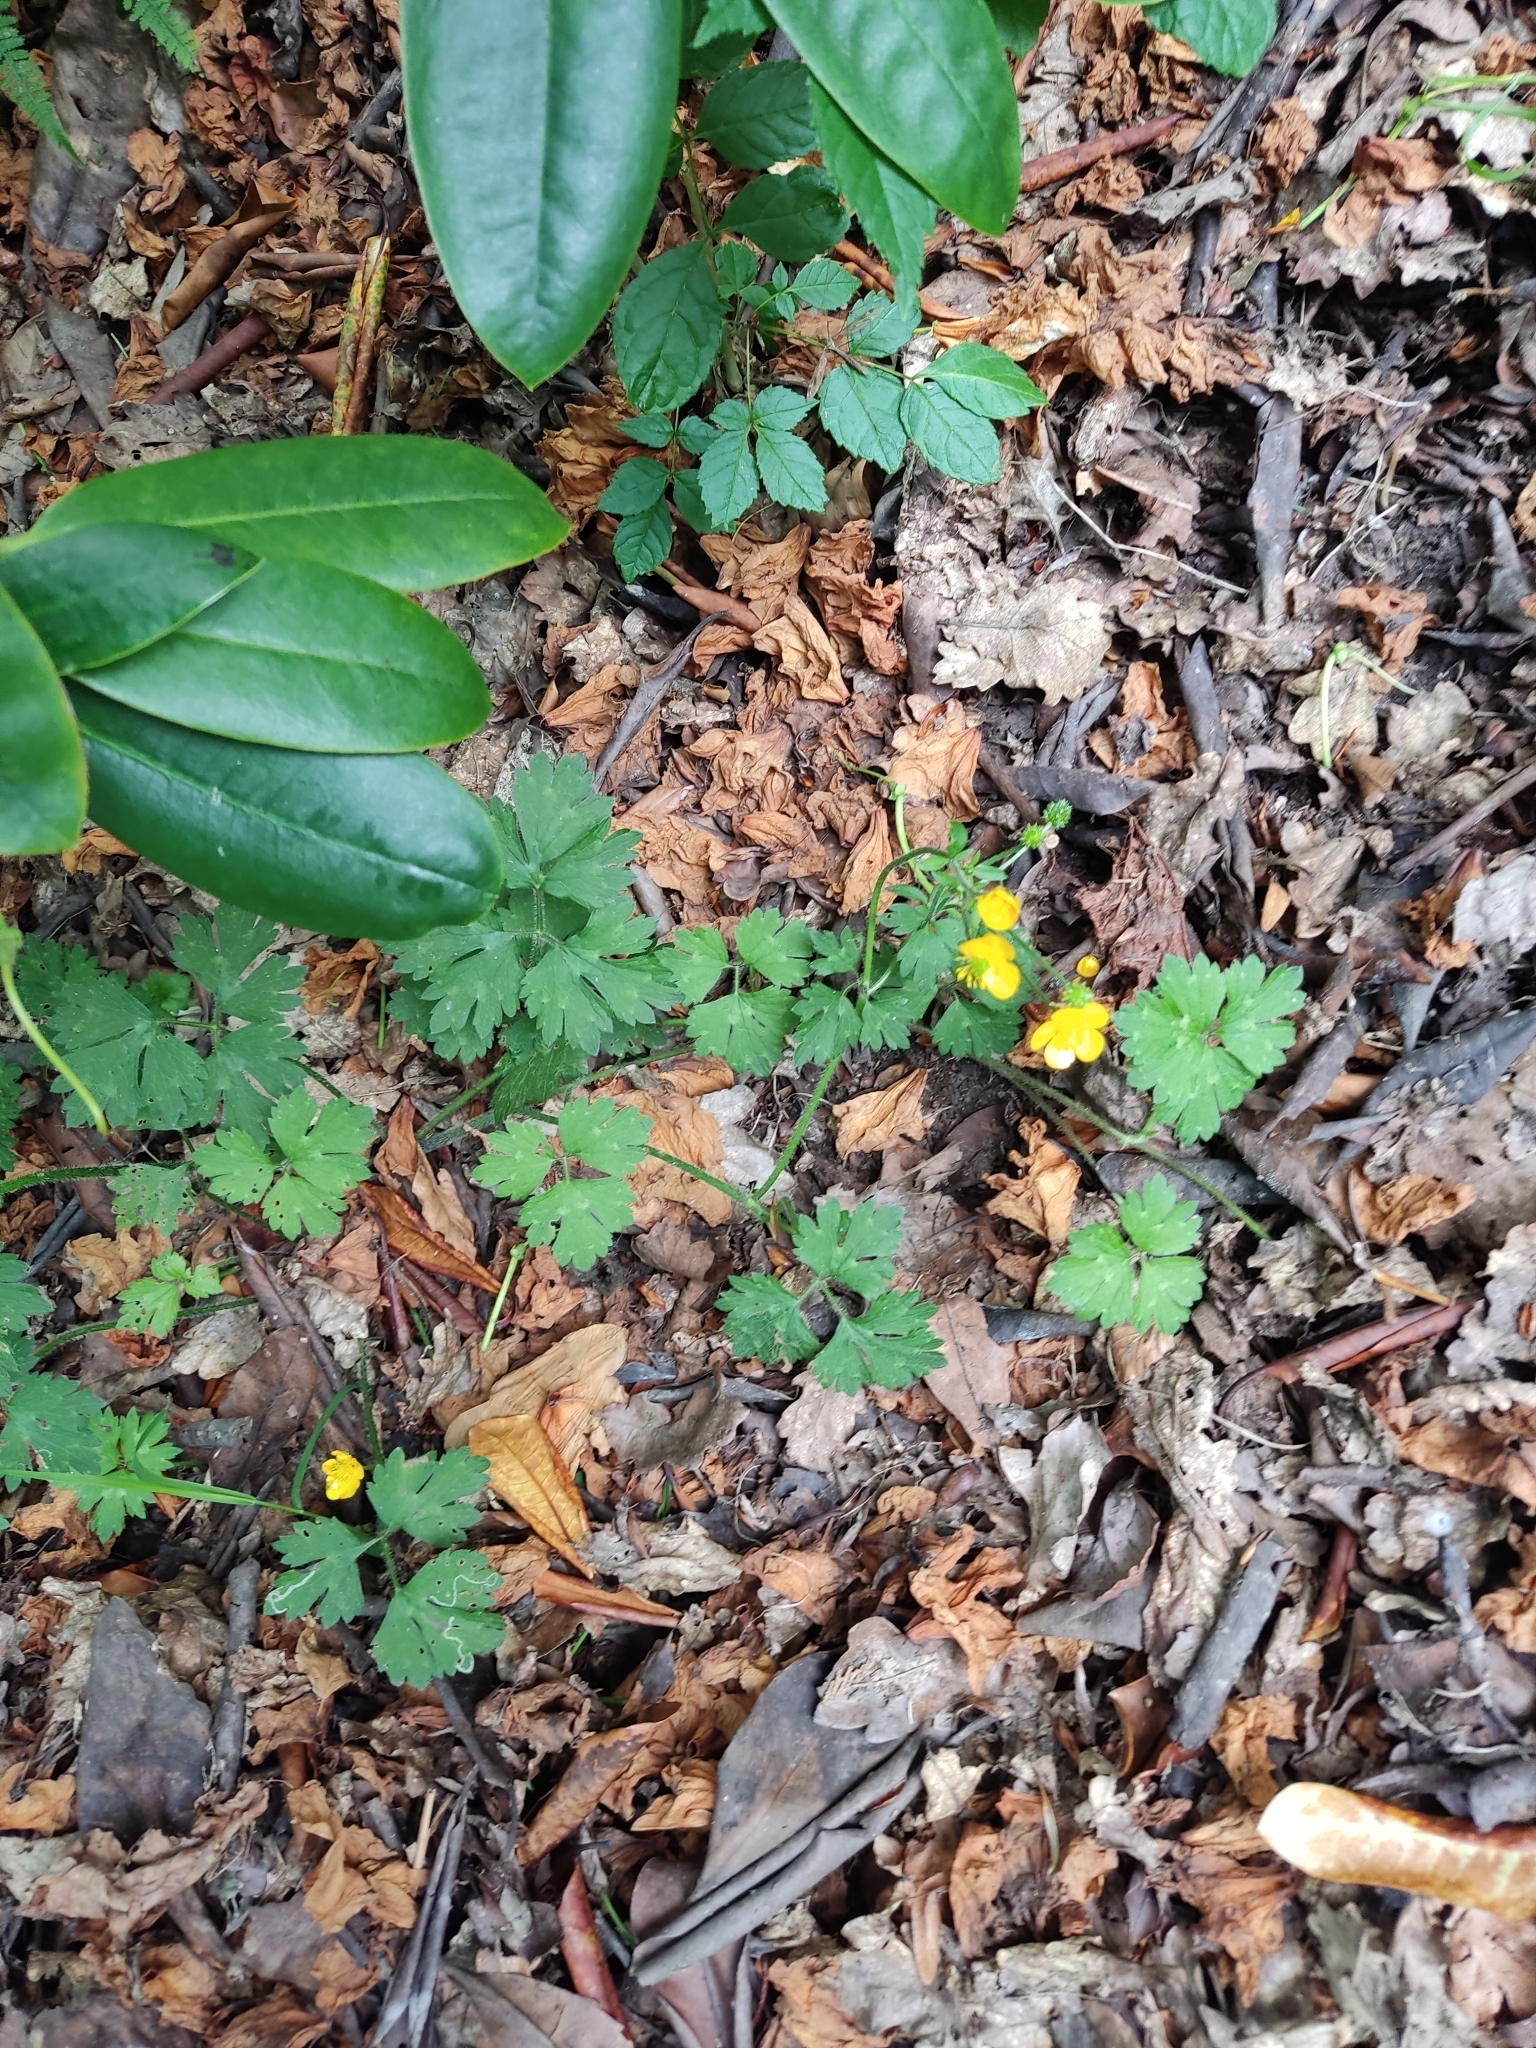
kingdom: Plantae
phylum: Tracheophyta
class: Magnoliopsida
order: Ranunculales
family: Ranunculaceae
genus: Ranunculus
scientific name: Ranunculus repens
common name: Creeping buttercup
